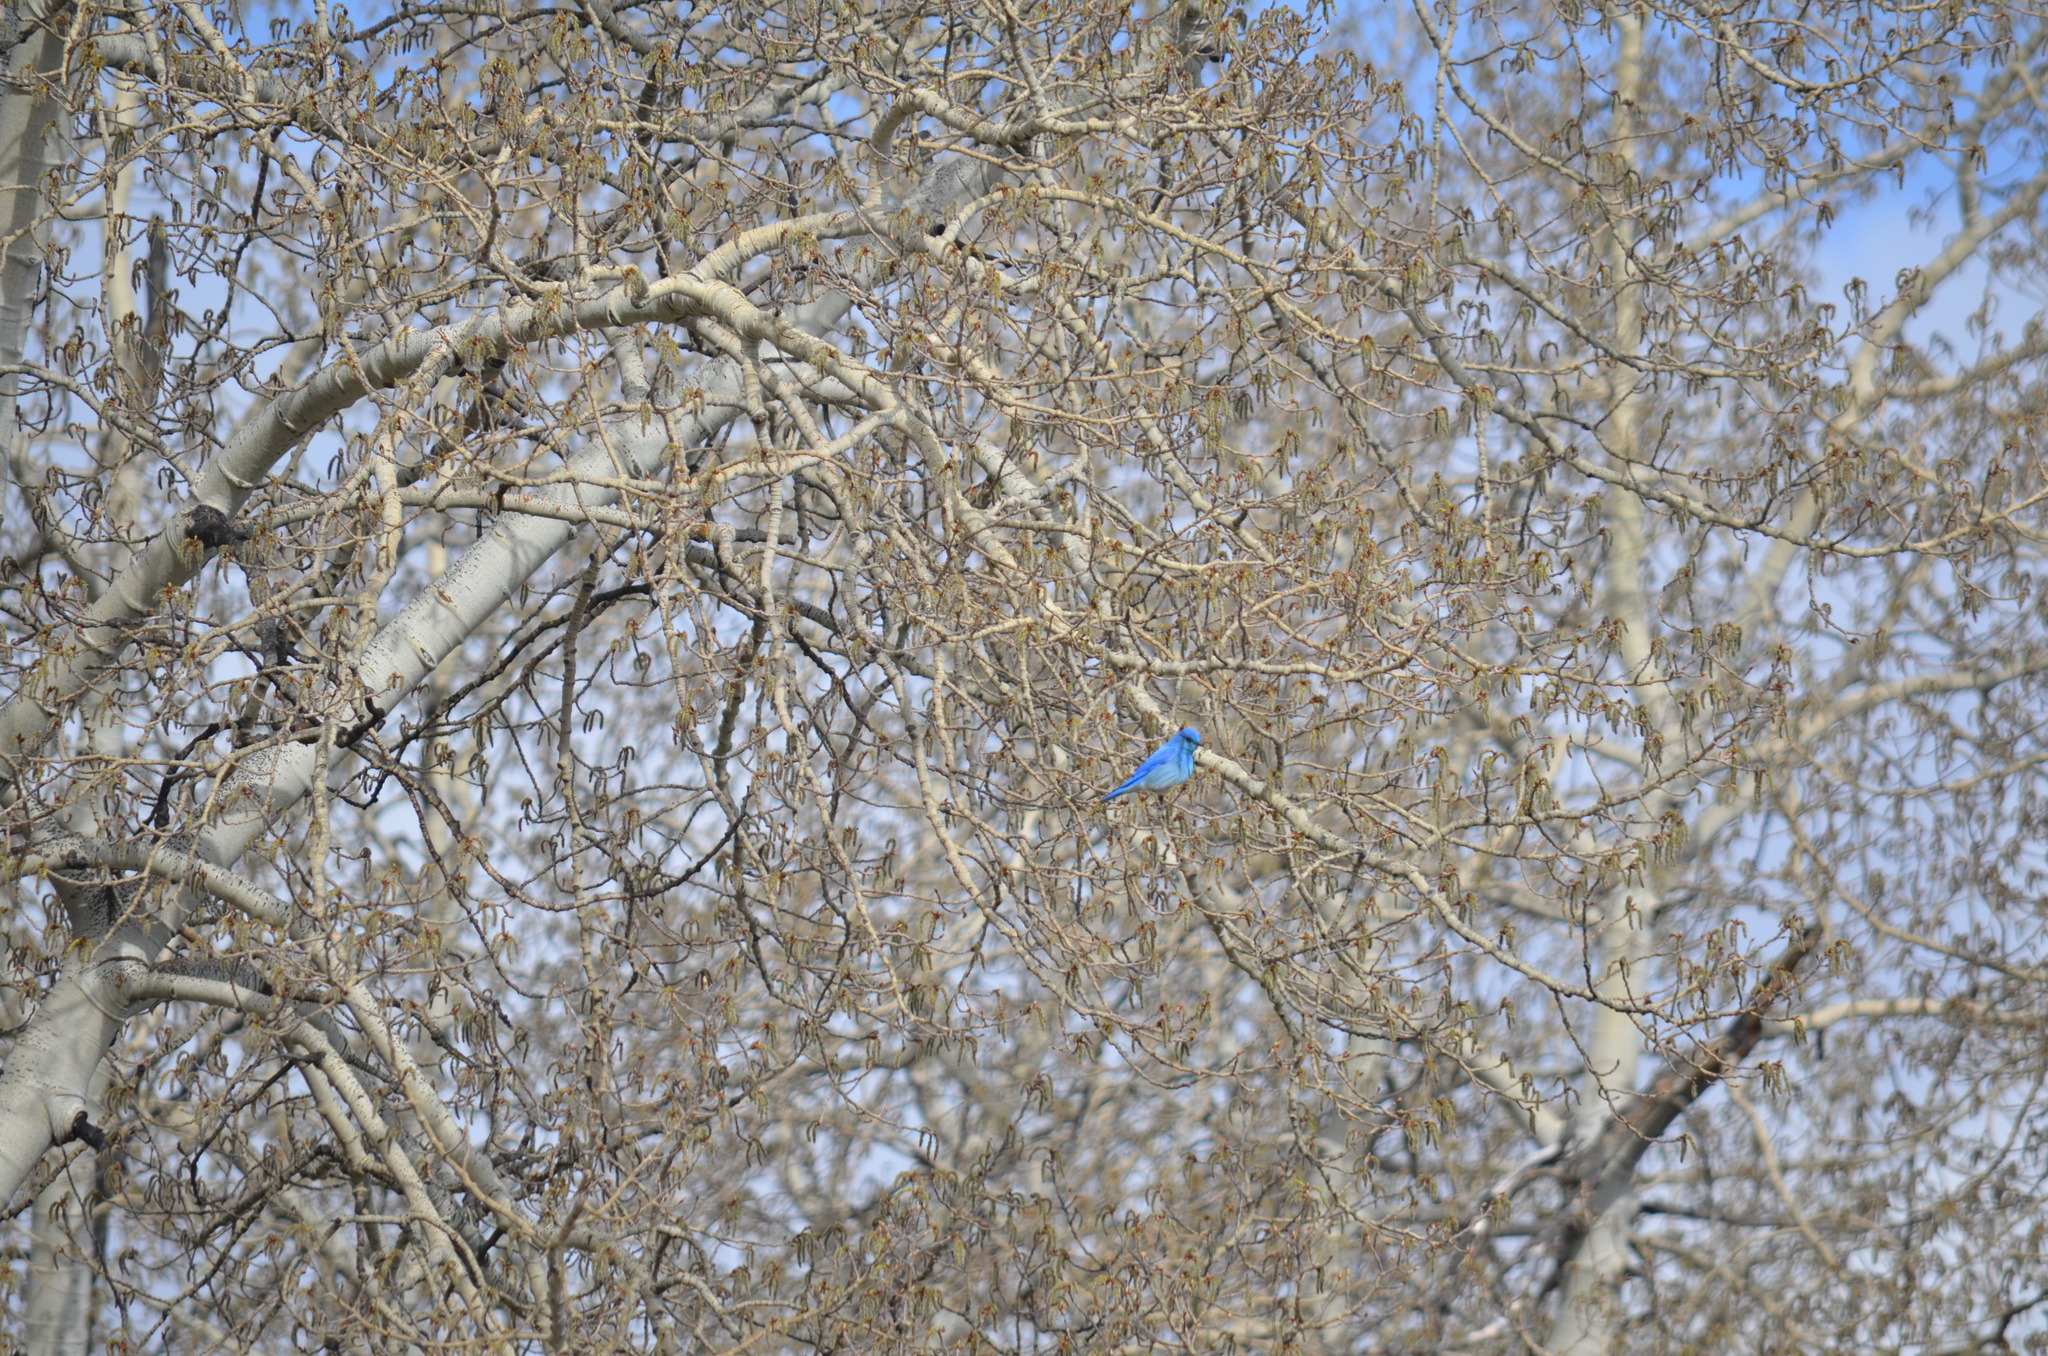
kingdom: Animalia
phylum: Chordata
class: Aves
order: Passeriformes
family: Turdidae
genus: Sialia
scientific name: Sialia currucoides
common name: Mountain bluebird
